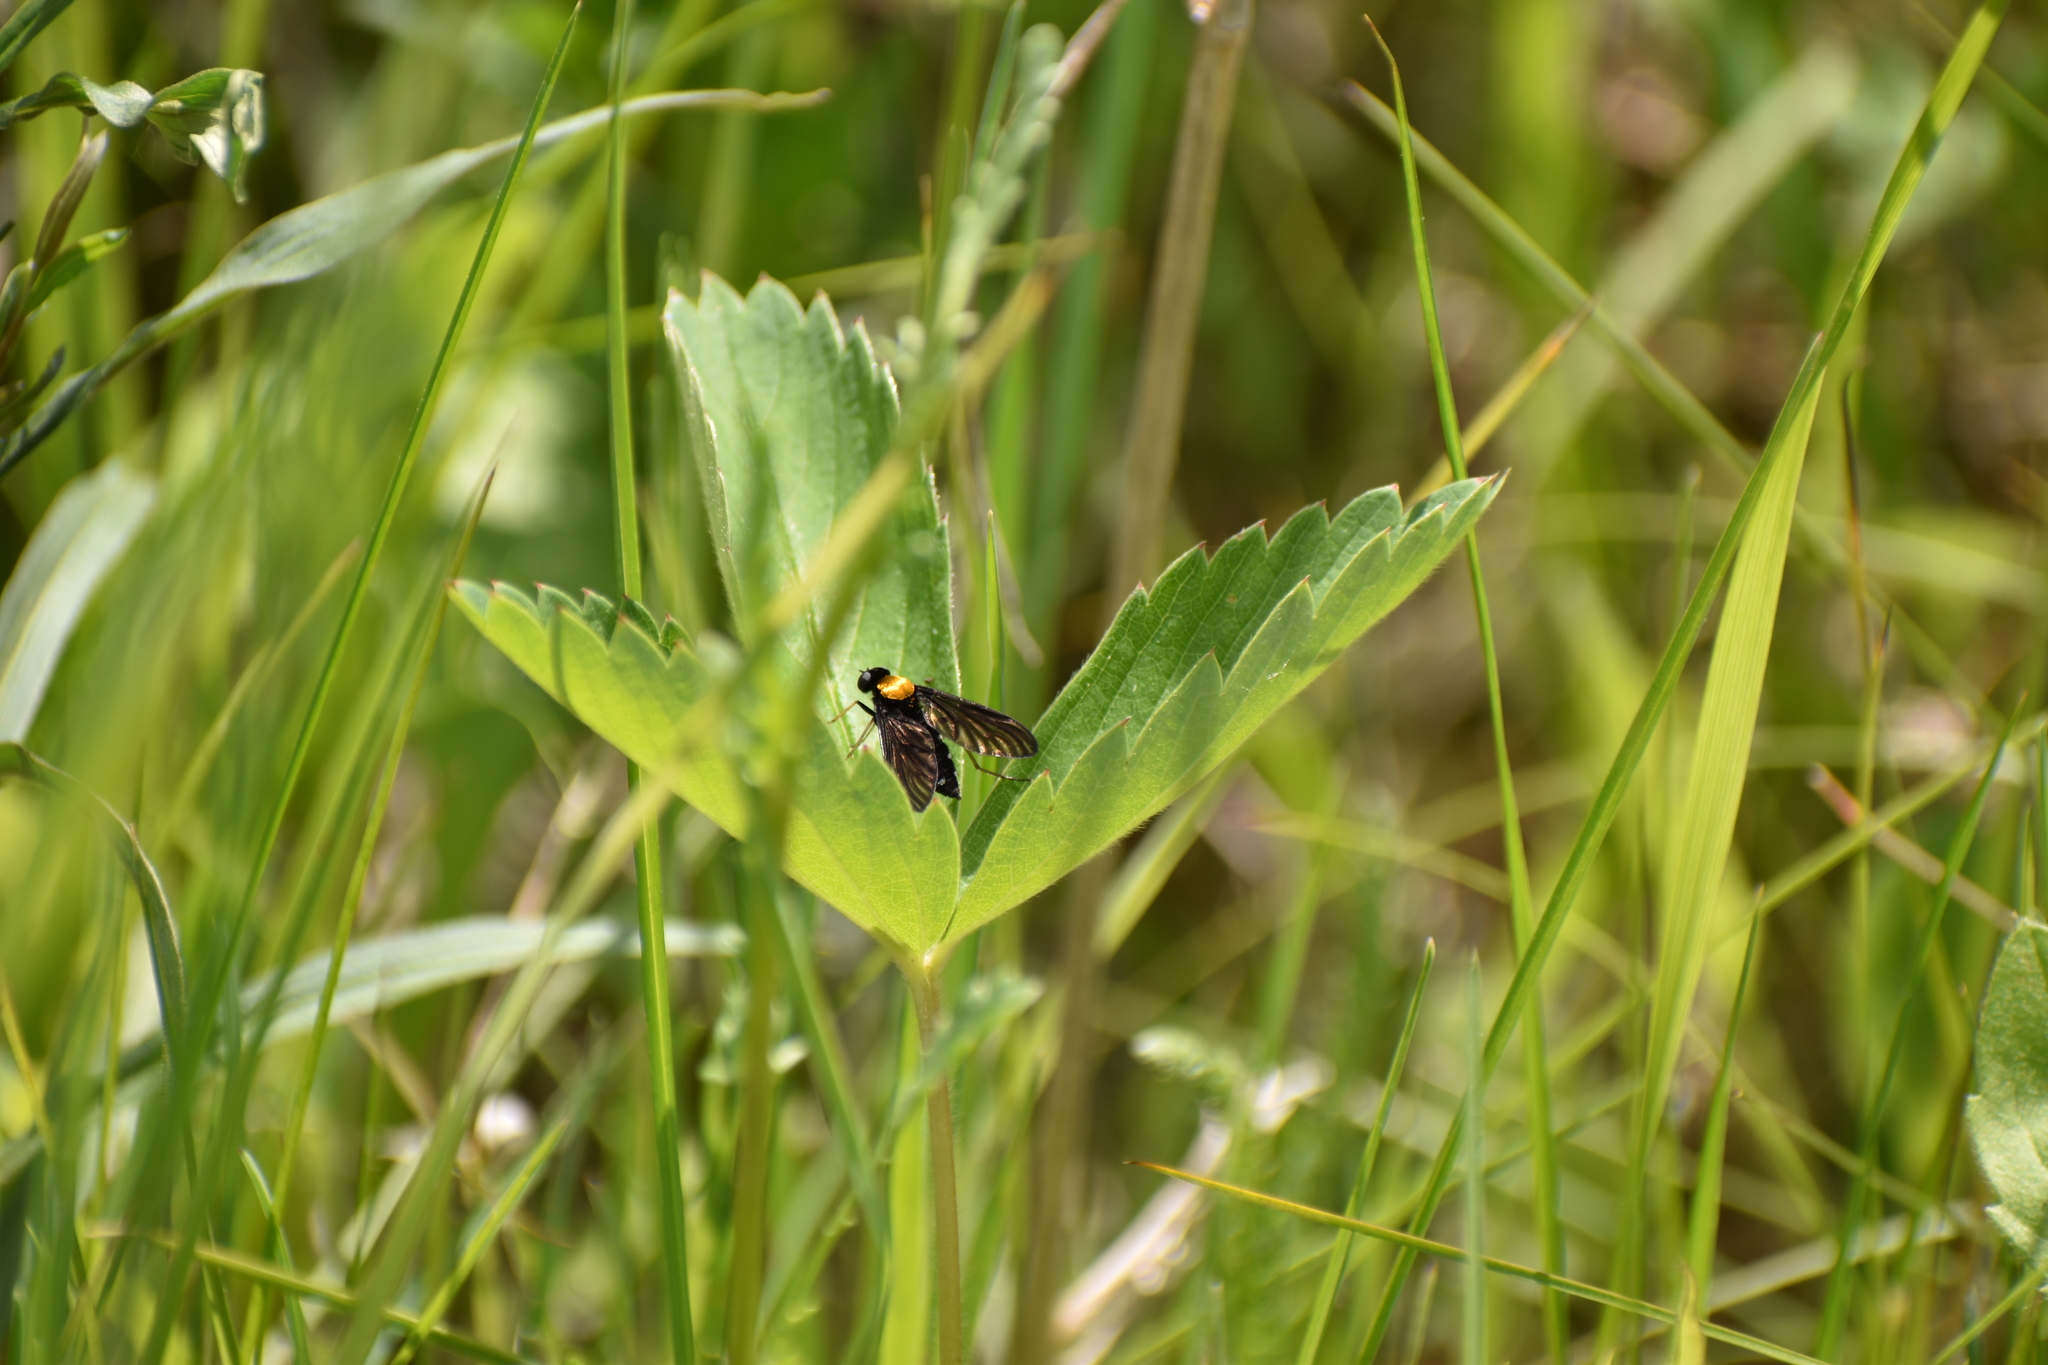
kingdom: Animalia
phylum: Arthropoda
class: Insecta
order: Diptera
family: Rhagionidae
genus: Chrysopilus
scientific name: Chrysopilus thoracicus
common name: Golden-backed snipe fly
